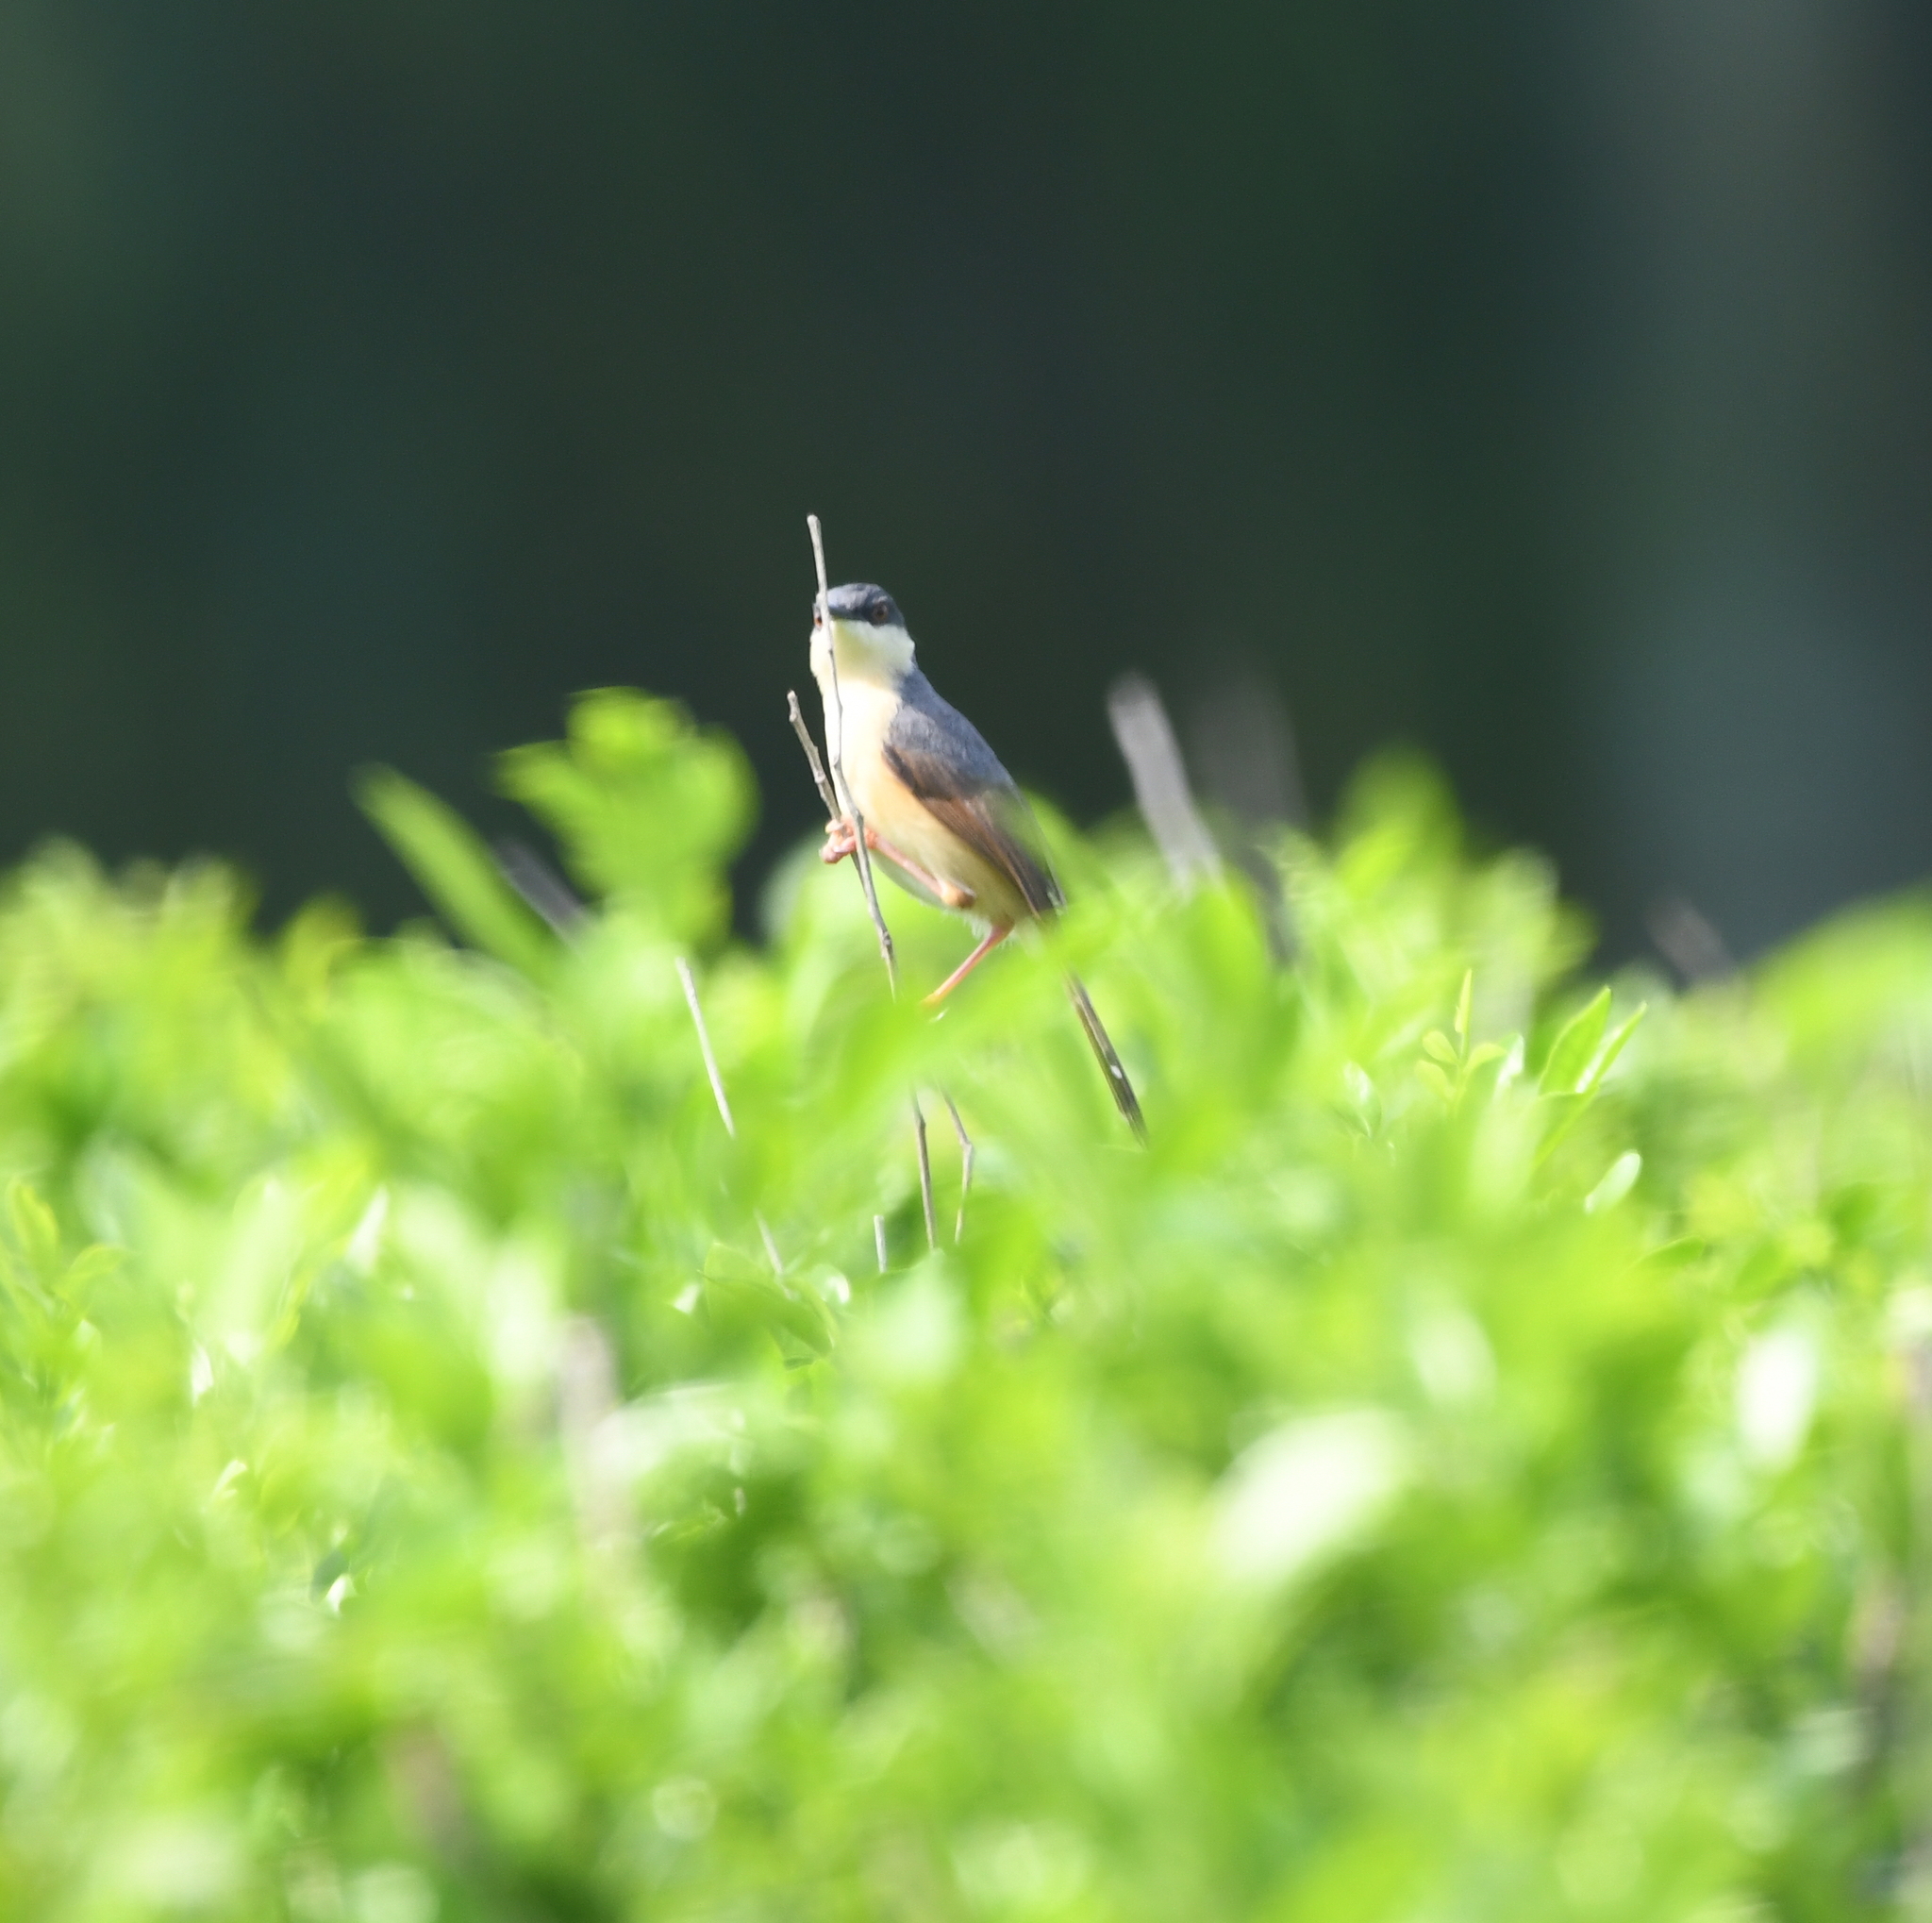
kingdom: Animalia
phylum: Chordata
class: Aves
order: Passeriformes
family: Cisticolidae
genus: Prinia
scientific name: Prinia socialis
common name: Ashy prinia
